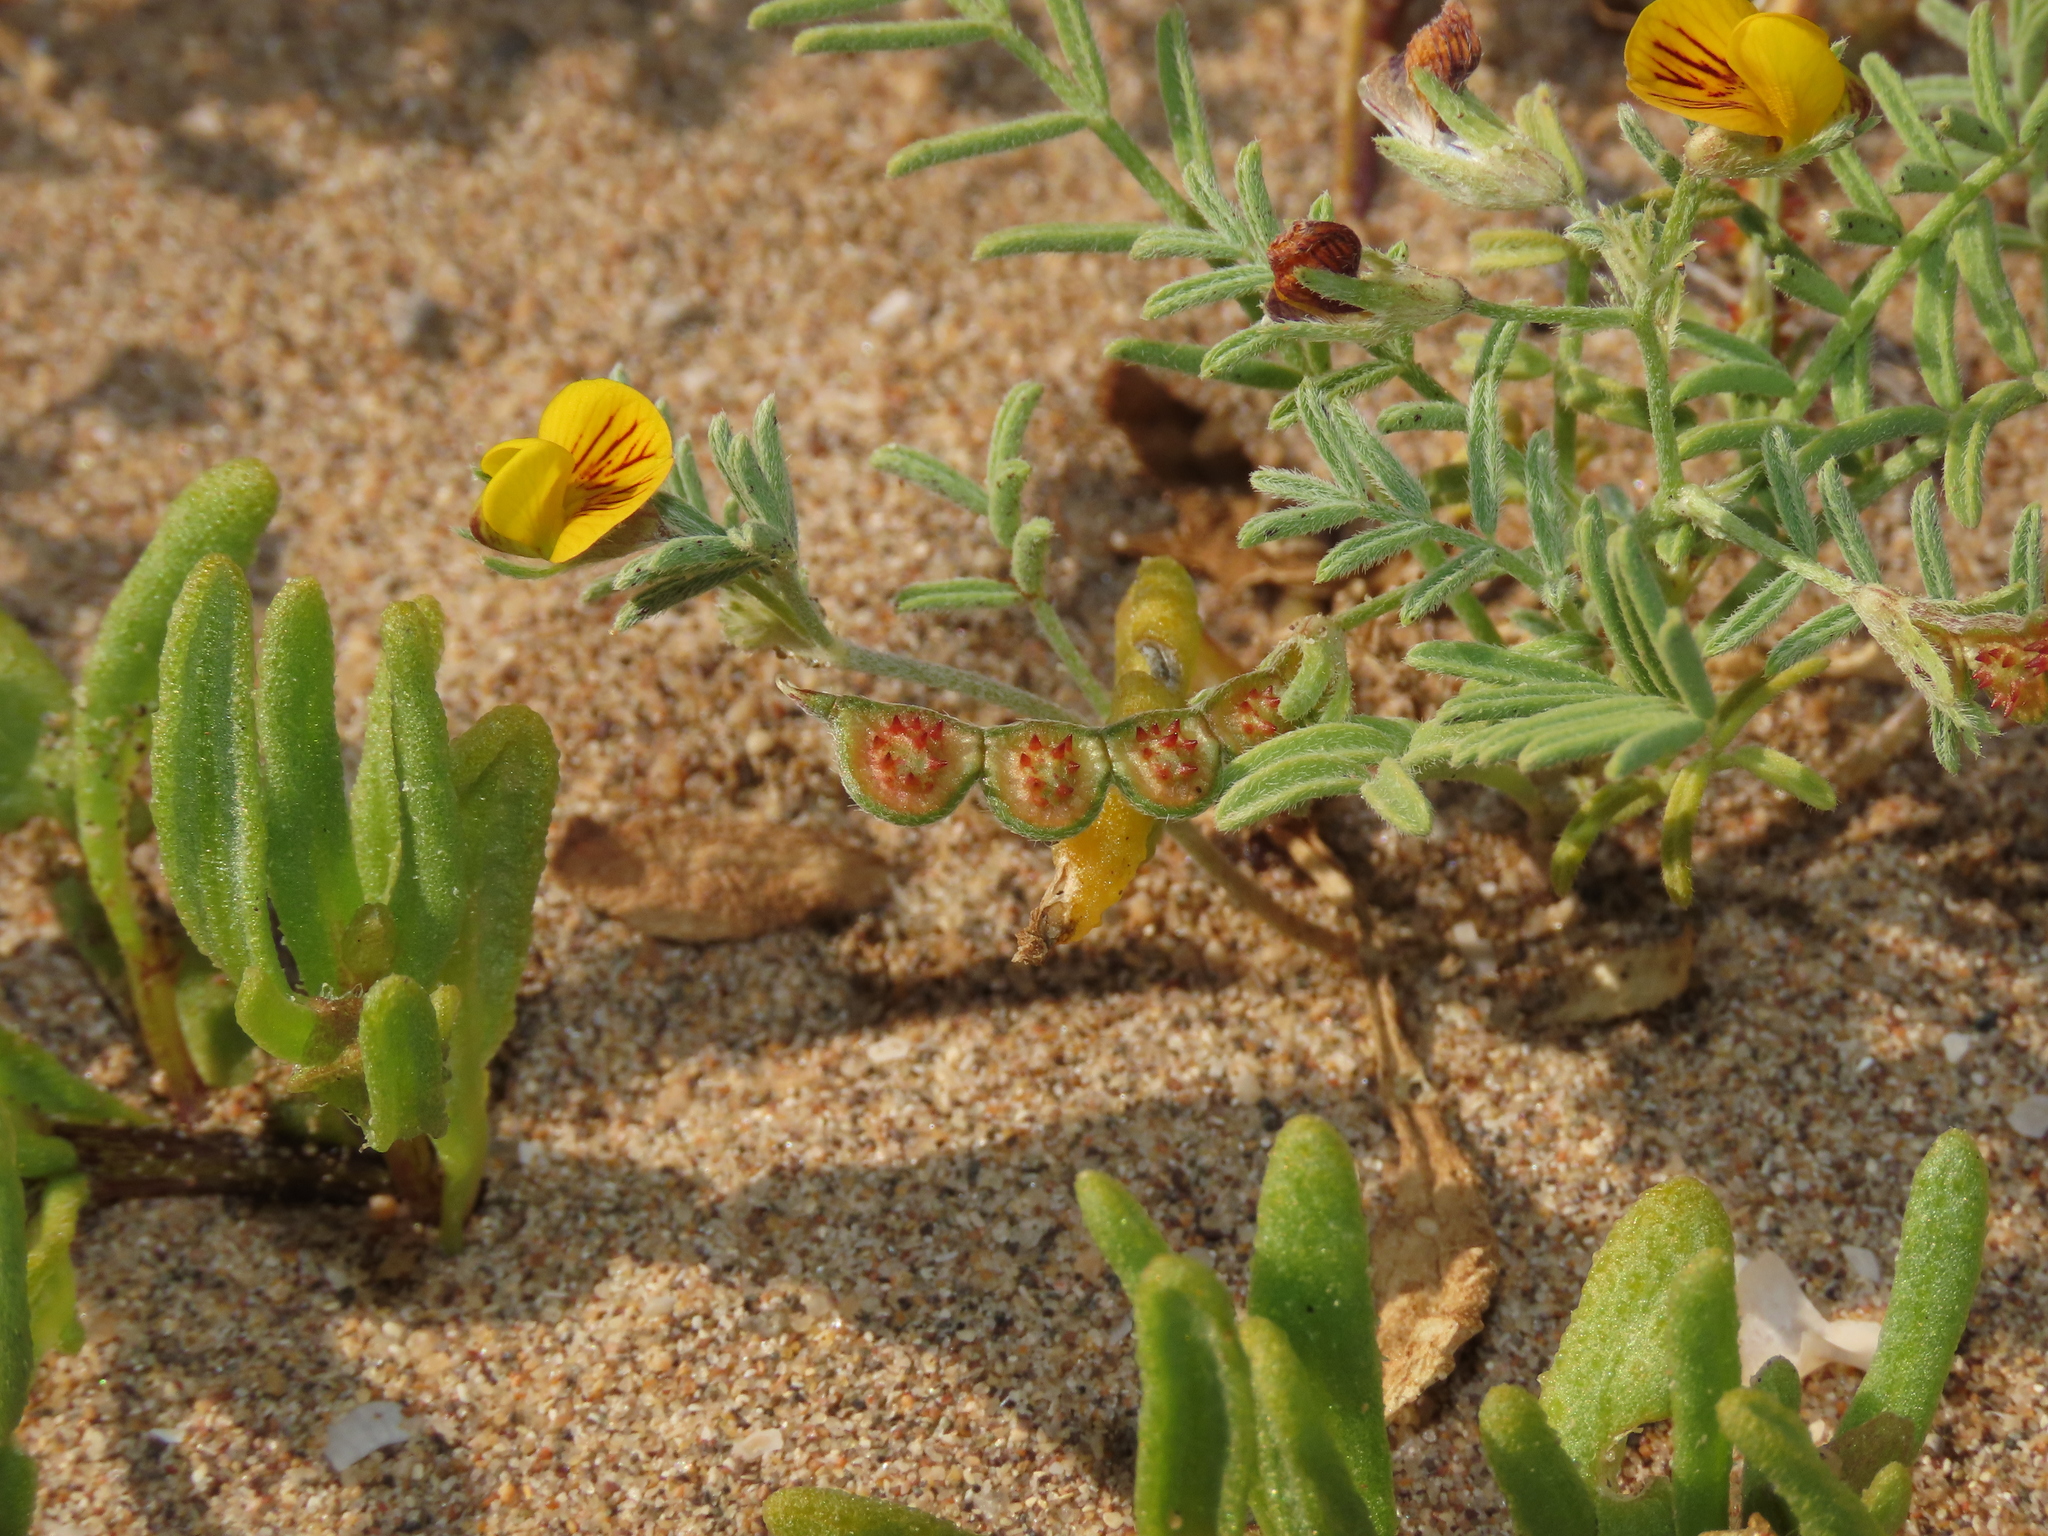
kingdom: Plantae
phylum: Tracheophyta
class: Magnoliopsida
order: Fabales
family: Fabaceae
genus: Adesmia
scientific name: Adesmia tenella
